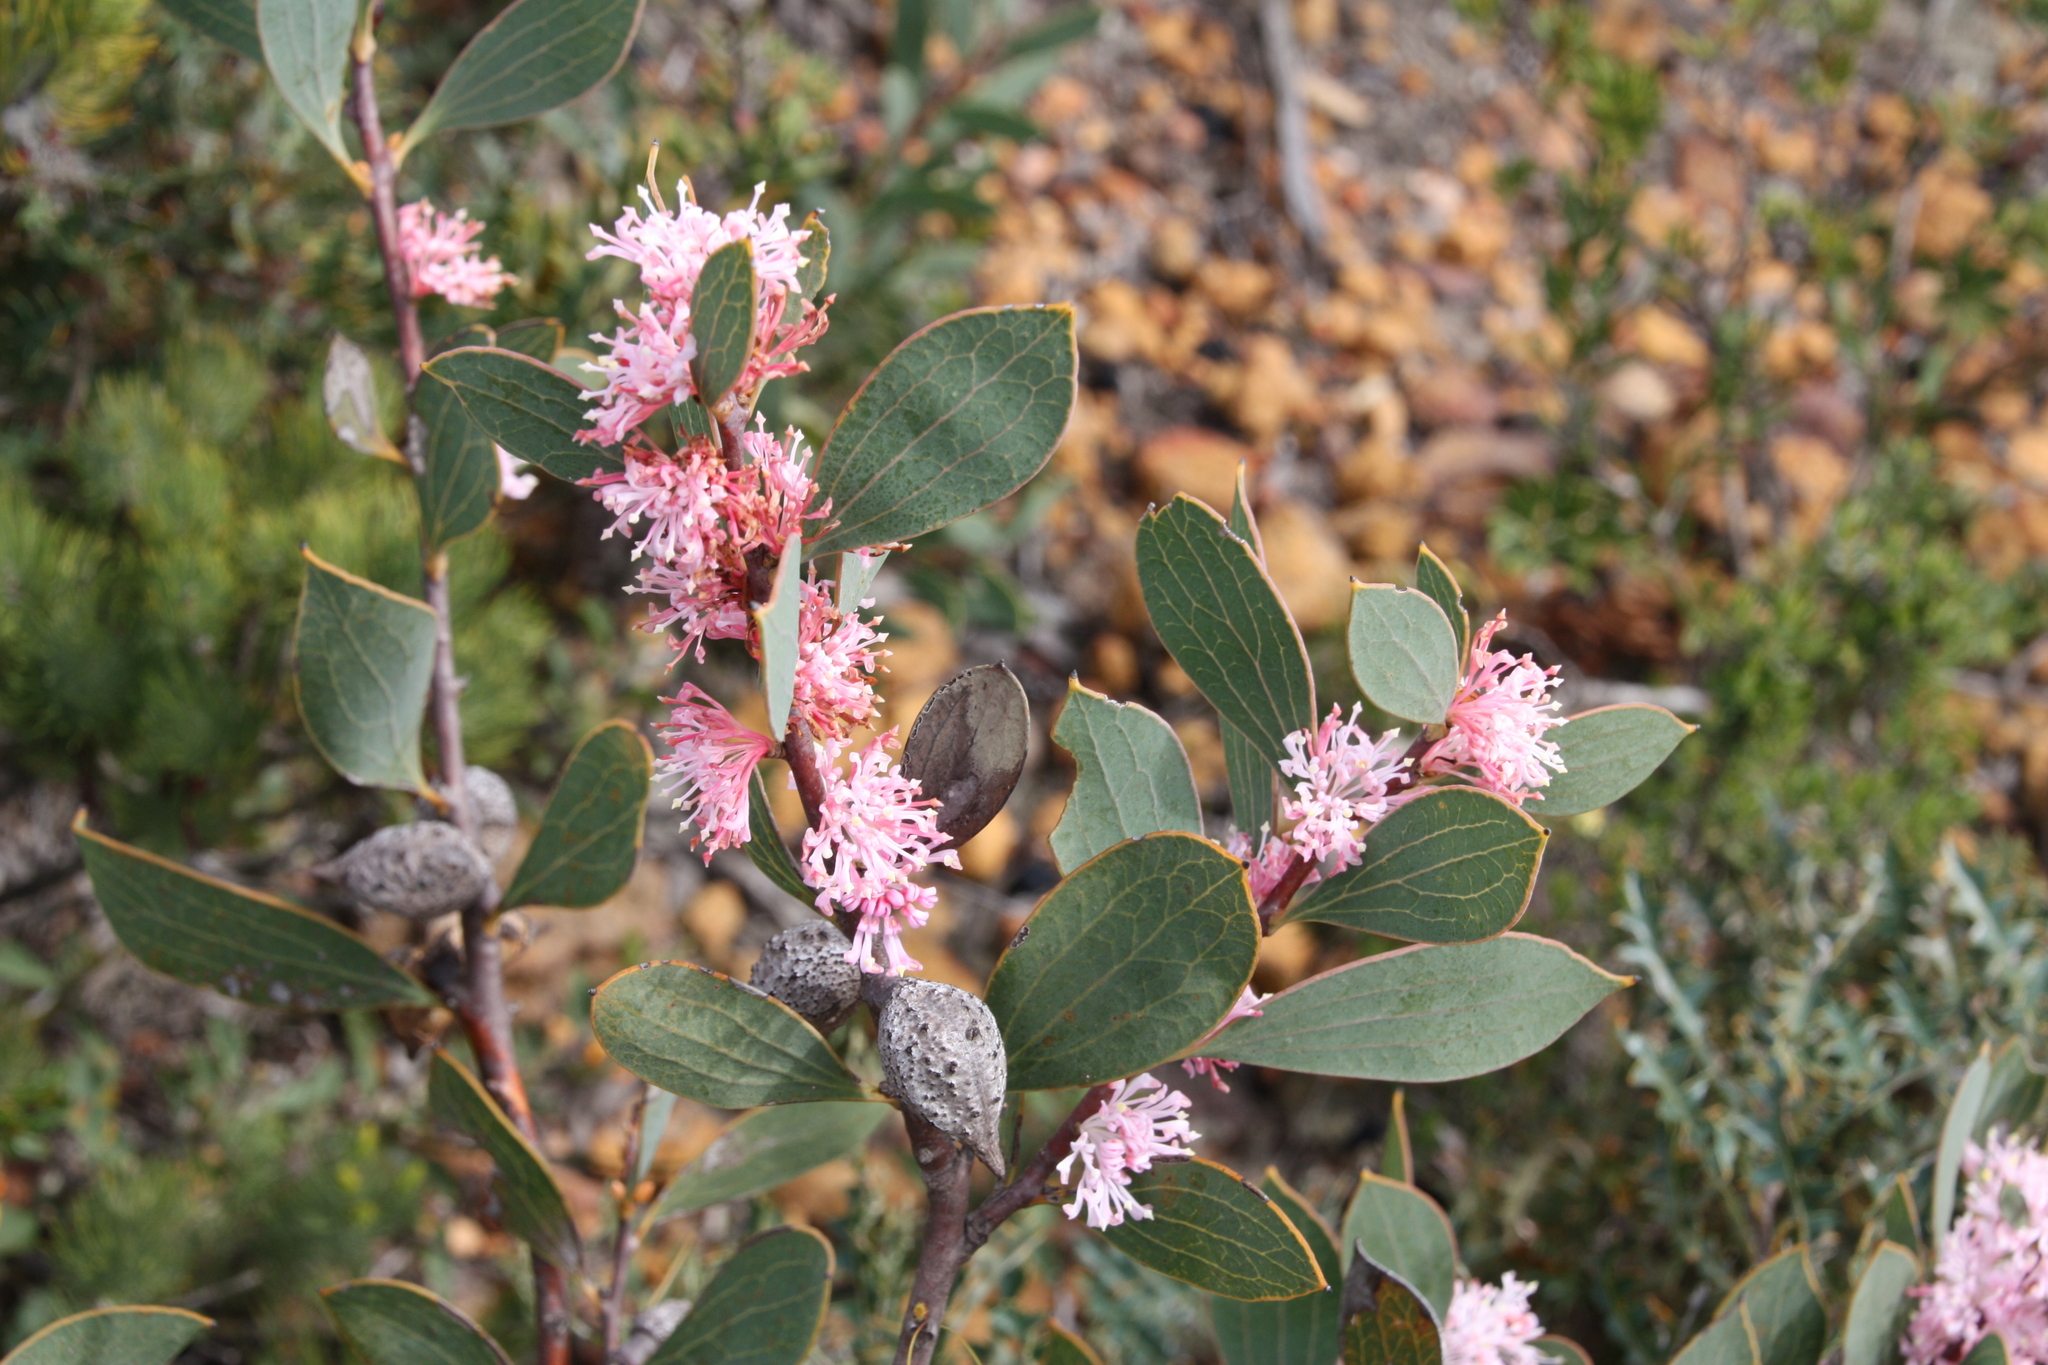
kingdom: Plantae
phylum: Tracheophyta
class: Magnoliopsida
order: Proteales
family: Proteaceae
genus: Hakea
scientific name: Hakea neurophylla
